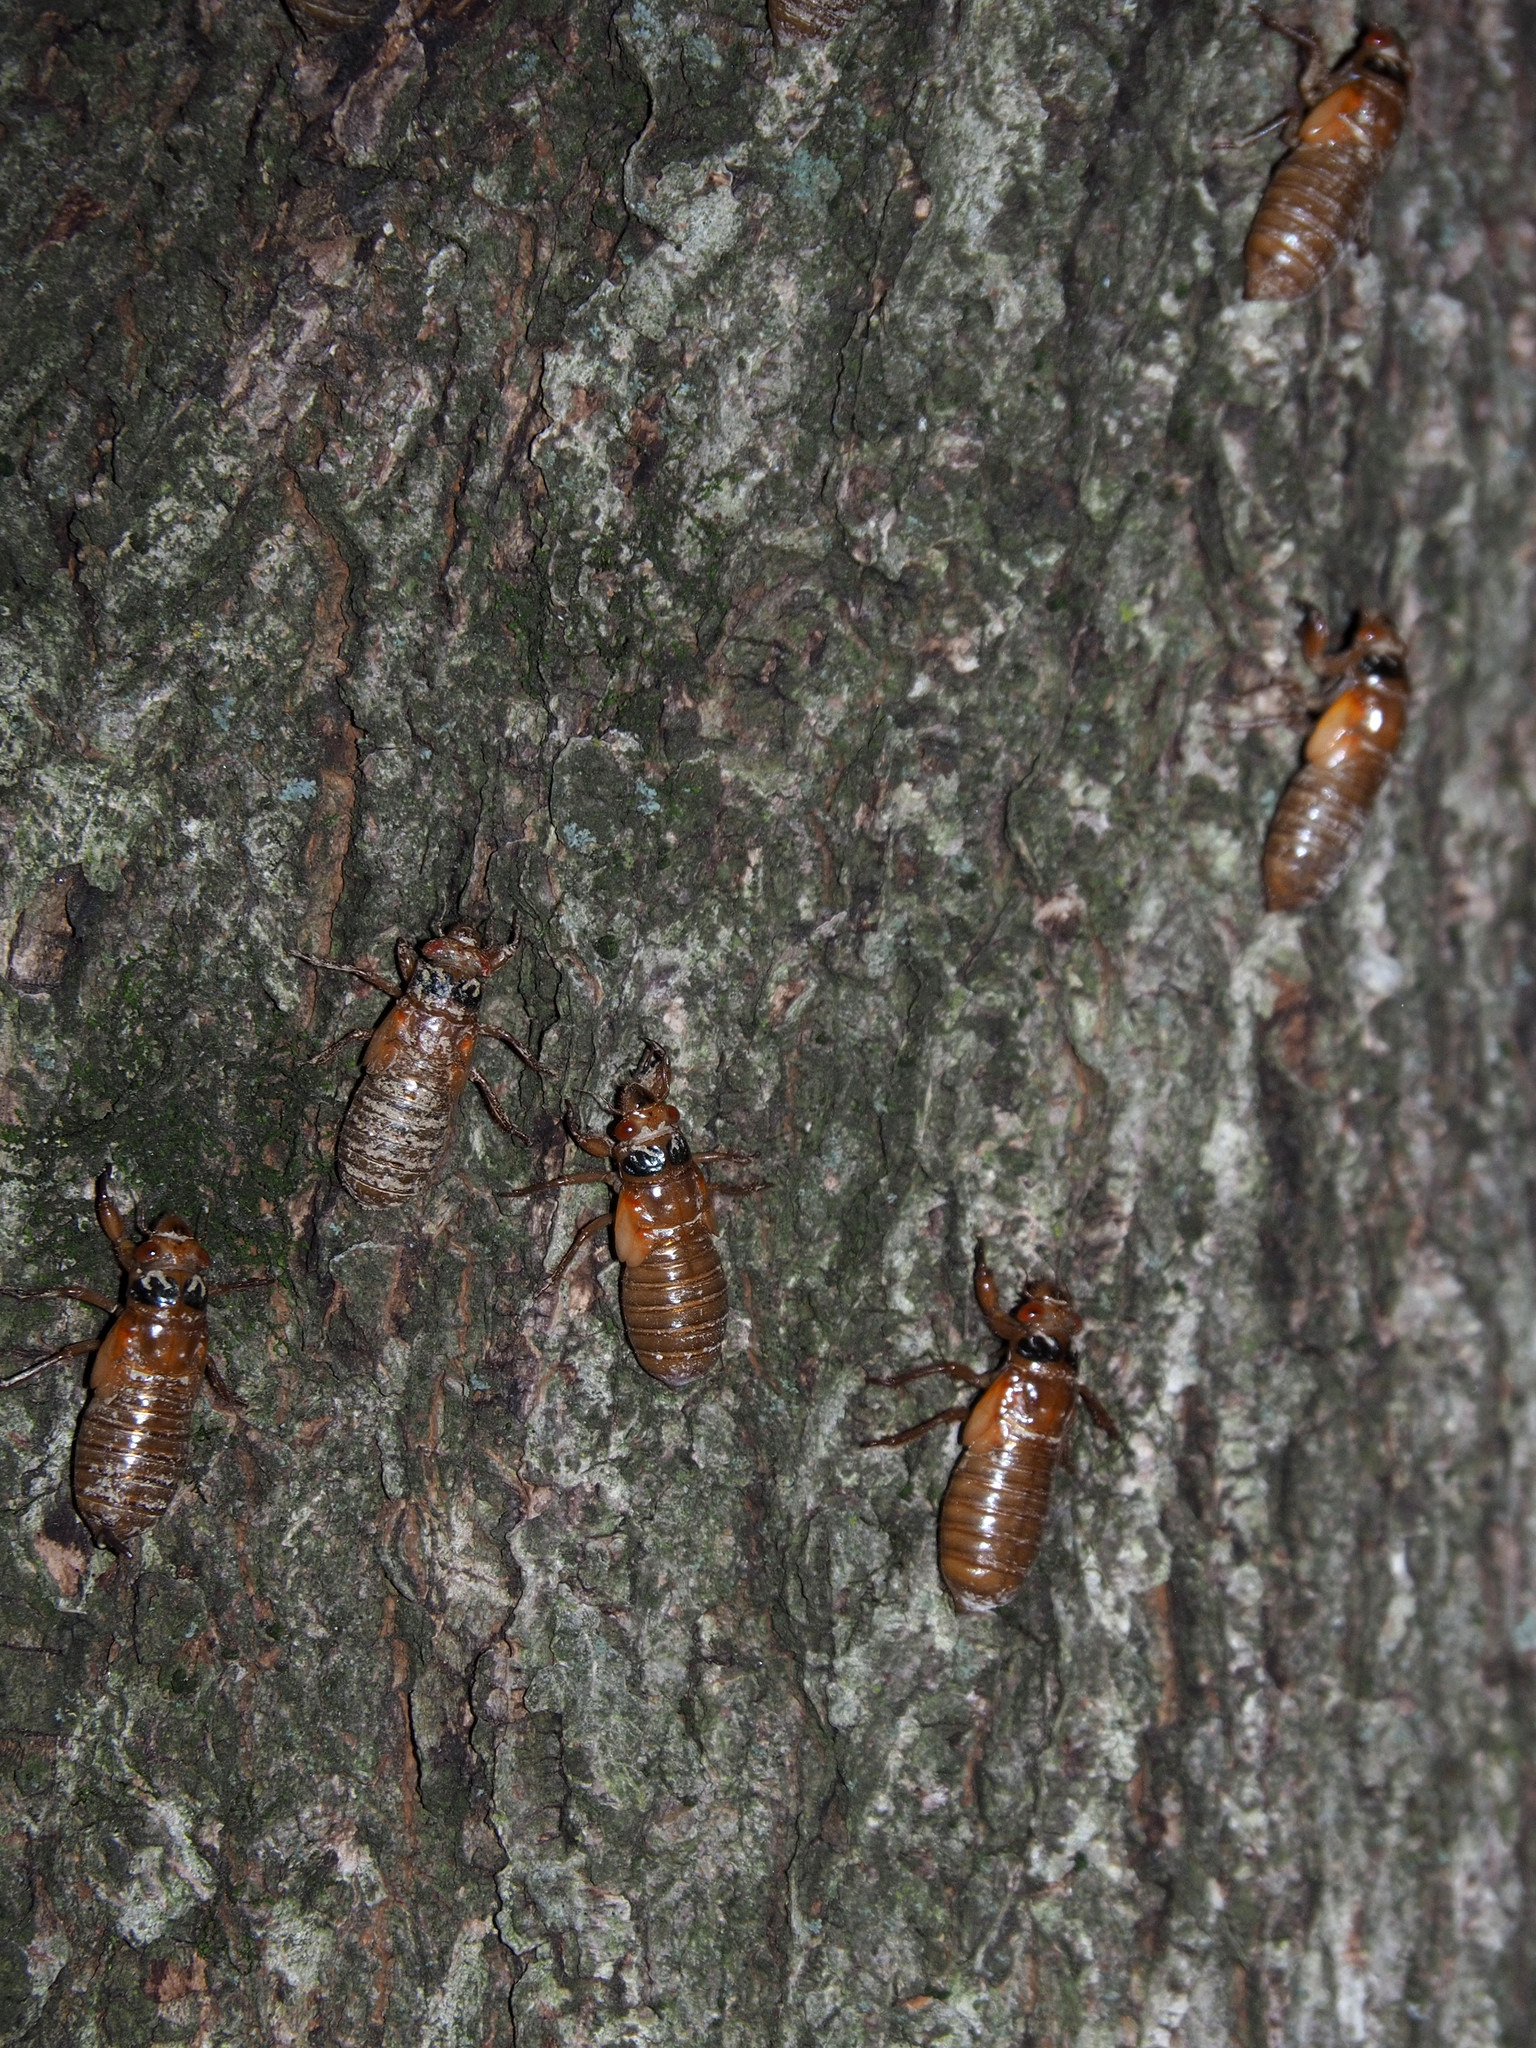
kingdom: Animalia
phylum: Arthropoda
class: Insecta
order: Hemiptera
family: Cicadidae
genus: Magicicada
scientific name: Magicicada
